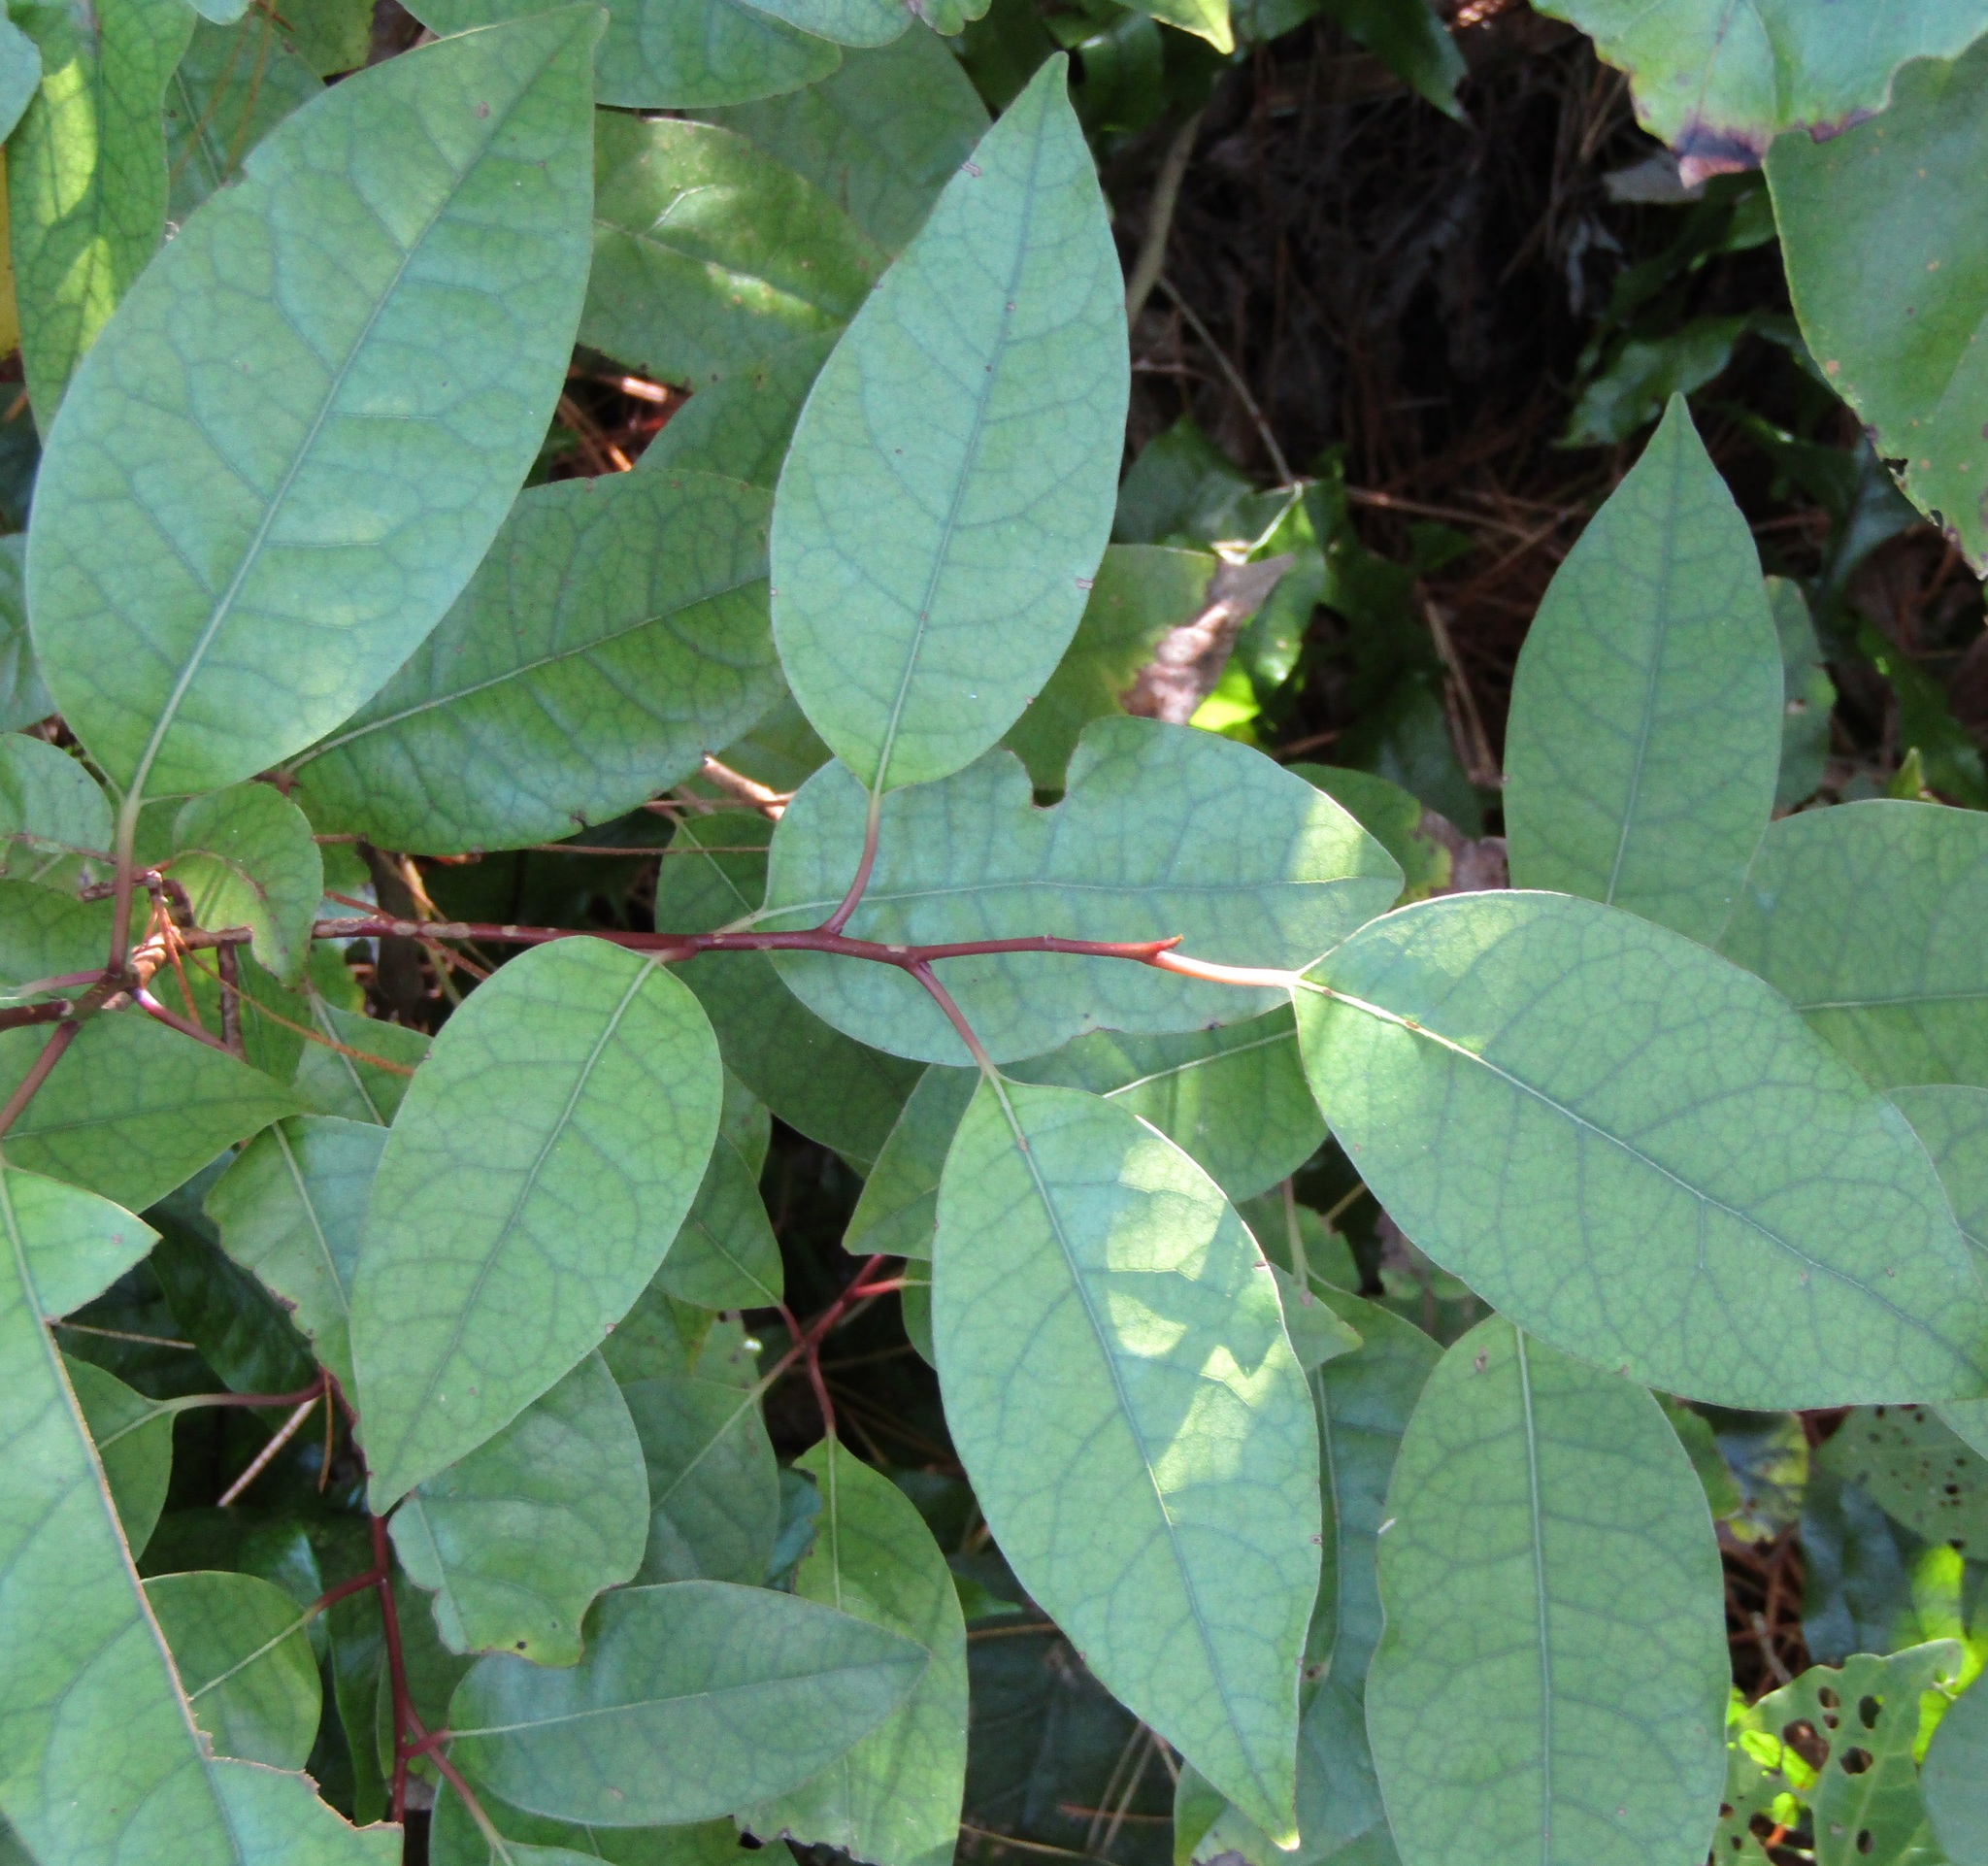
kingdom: Plantae
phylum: Tracheophyta
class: Magnoliopsida
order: Laurales
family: Lauraceae
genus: Litsea
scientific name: Litsea calicaris
